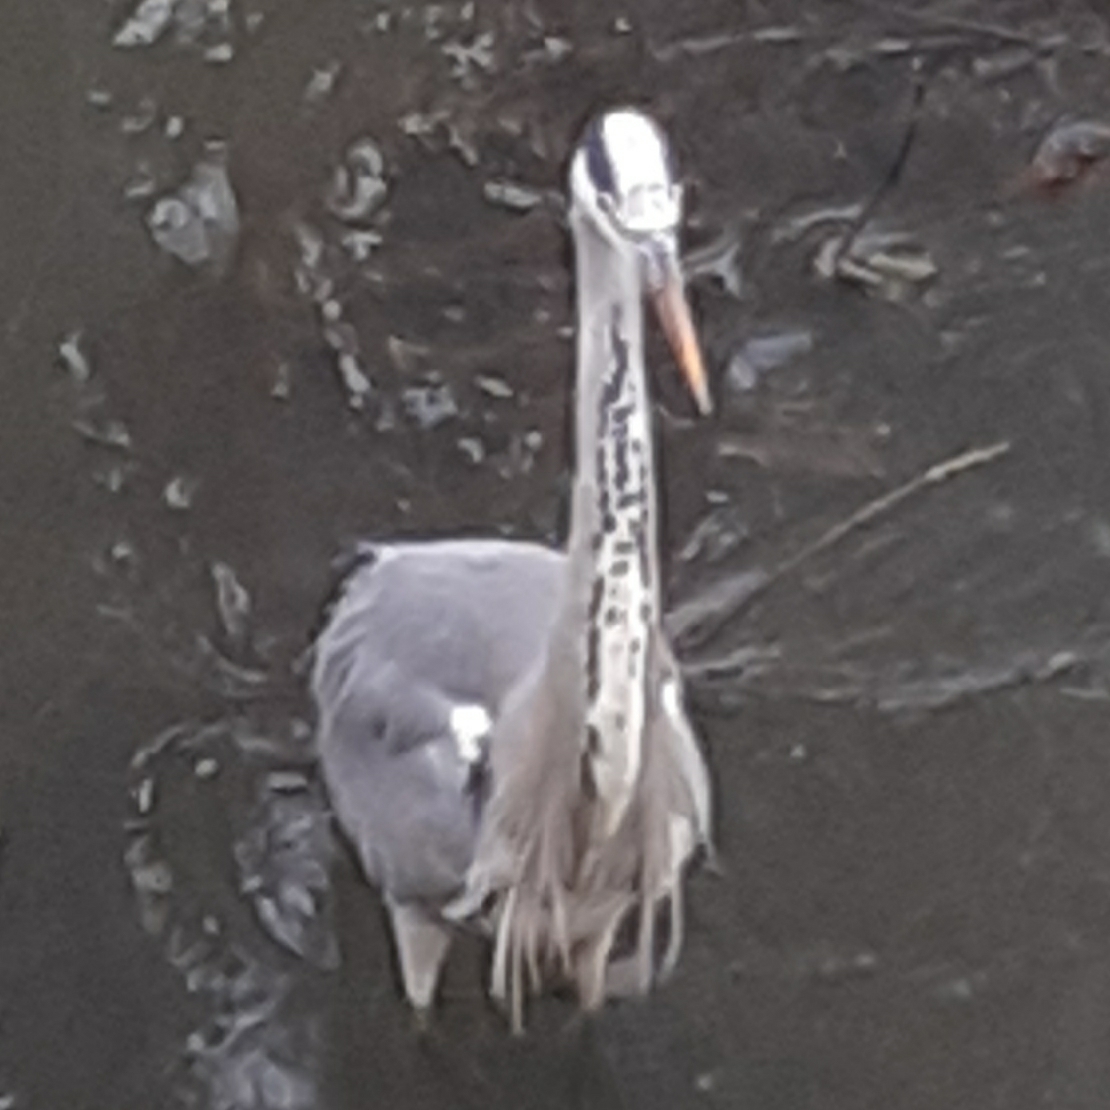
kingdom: Animalia
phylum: Chordata
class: Aves
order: Pelecaniformes
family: Ardeidae
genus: Ardea
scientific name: Ardea cinerea
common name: Grey heron
